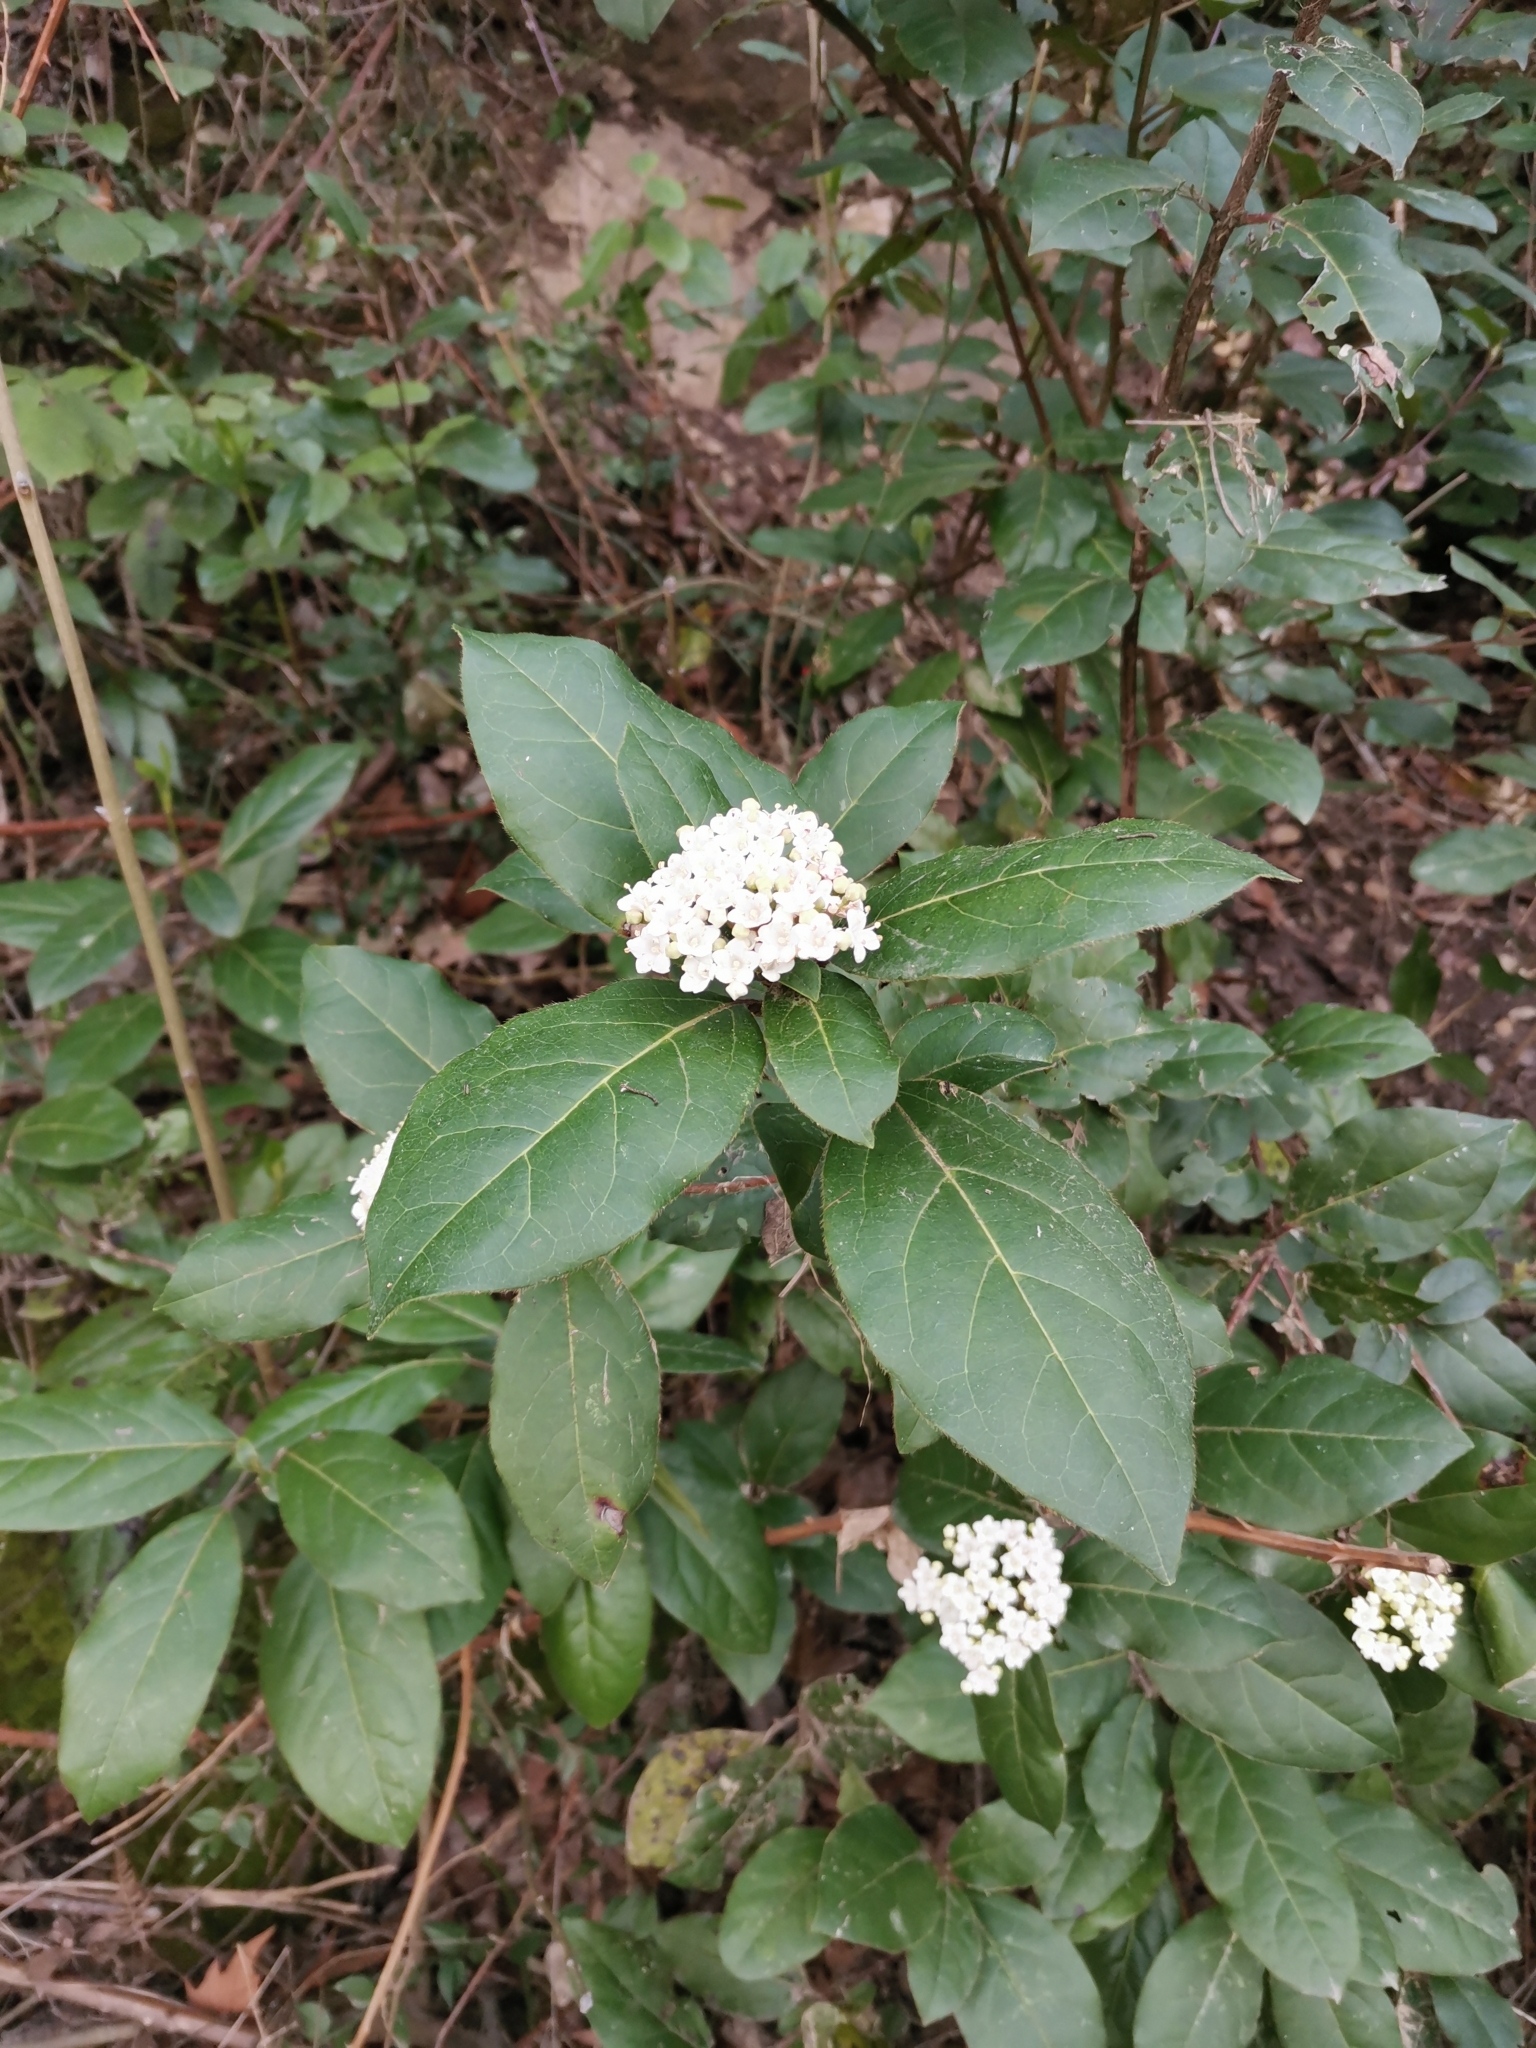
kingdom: Plantae
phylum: Tracheophyta
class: Magnoliopsida
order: Dipsacales
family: Viburnaceae
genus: Viburnum
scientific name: Viburnum tinus
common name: Laurustinus
